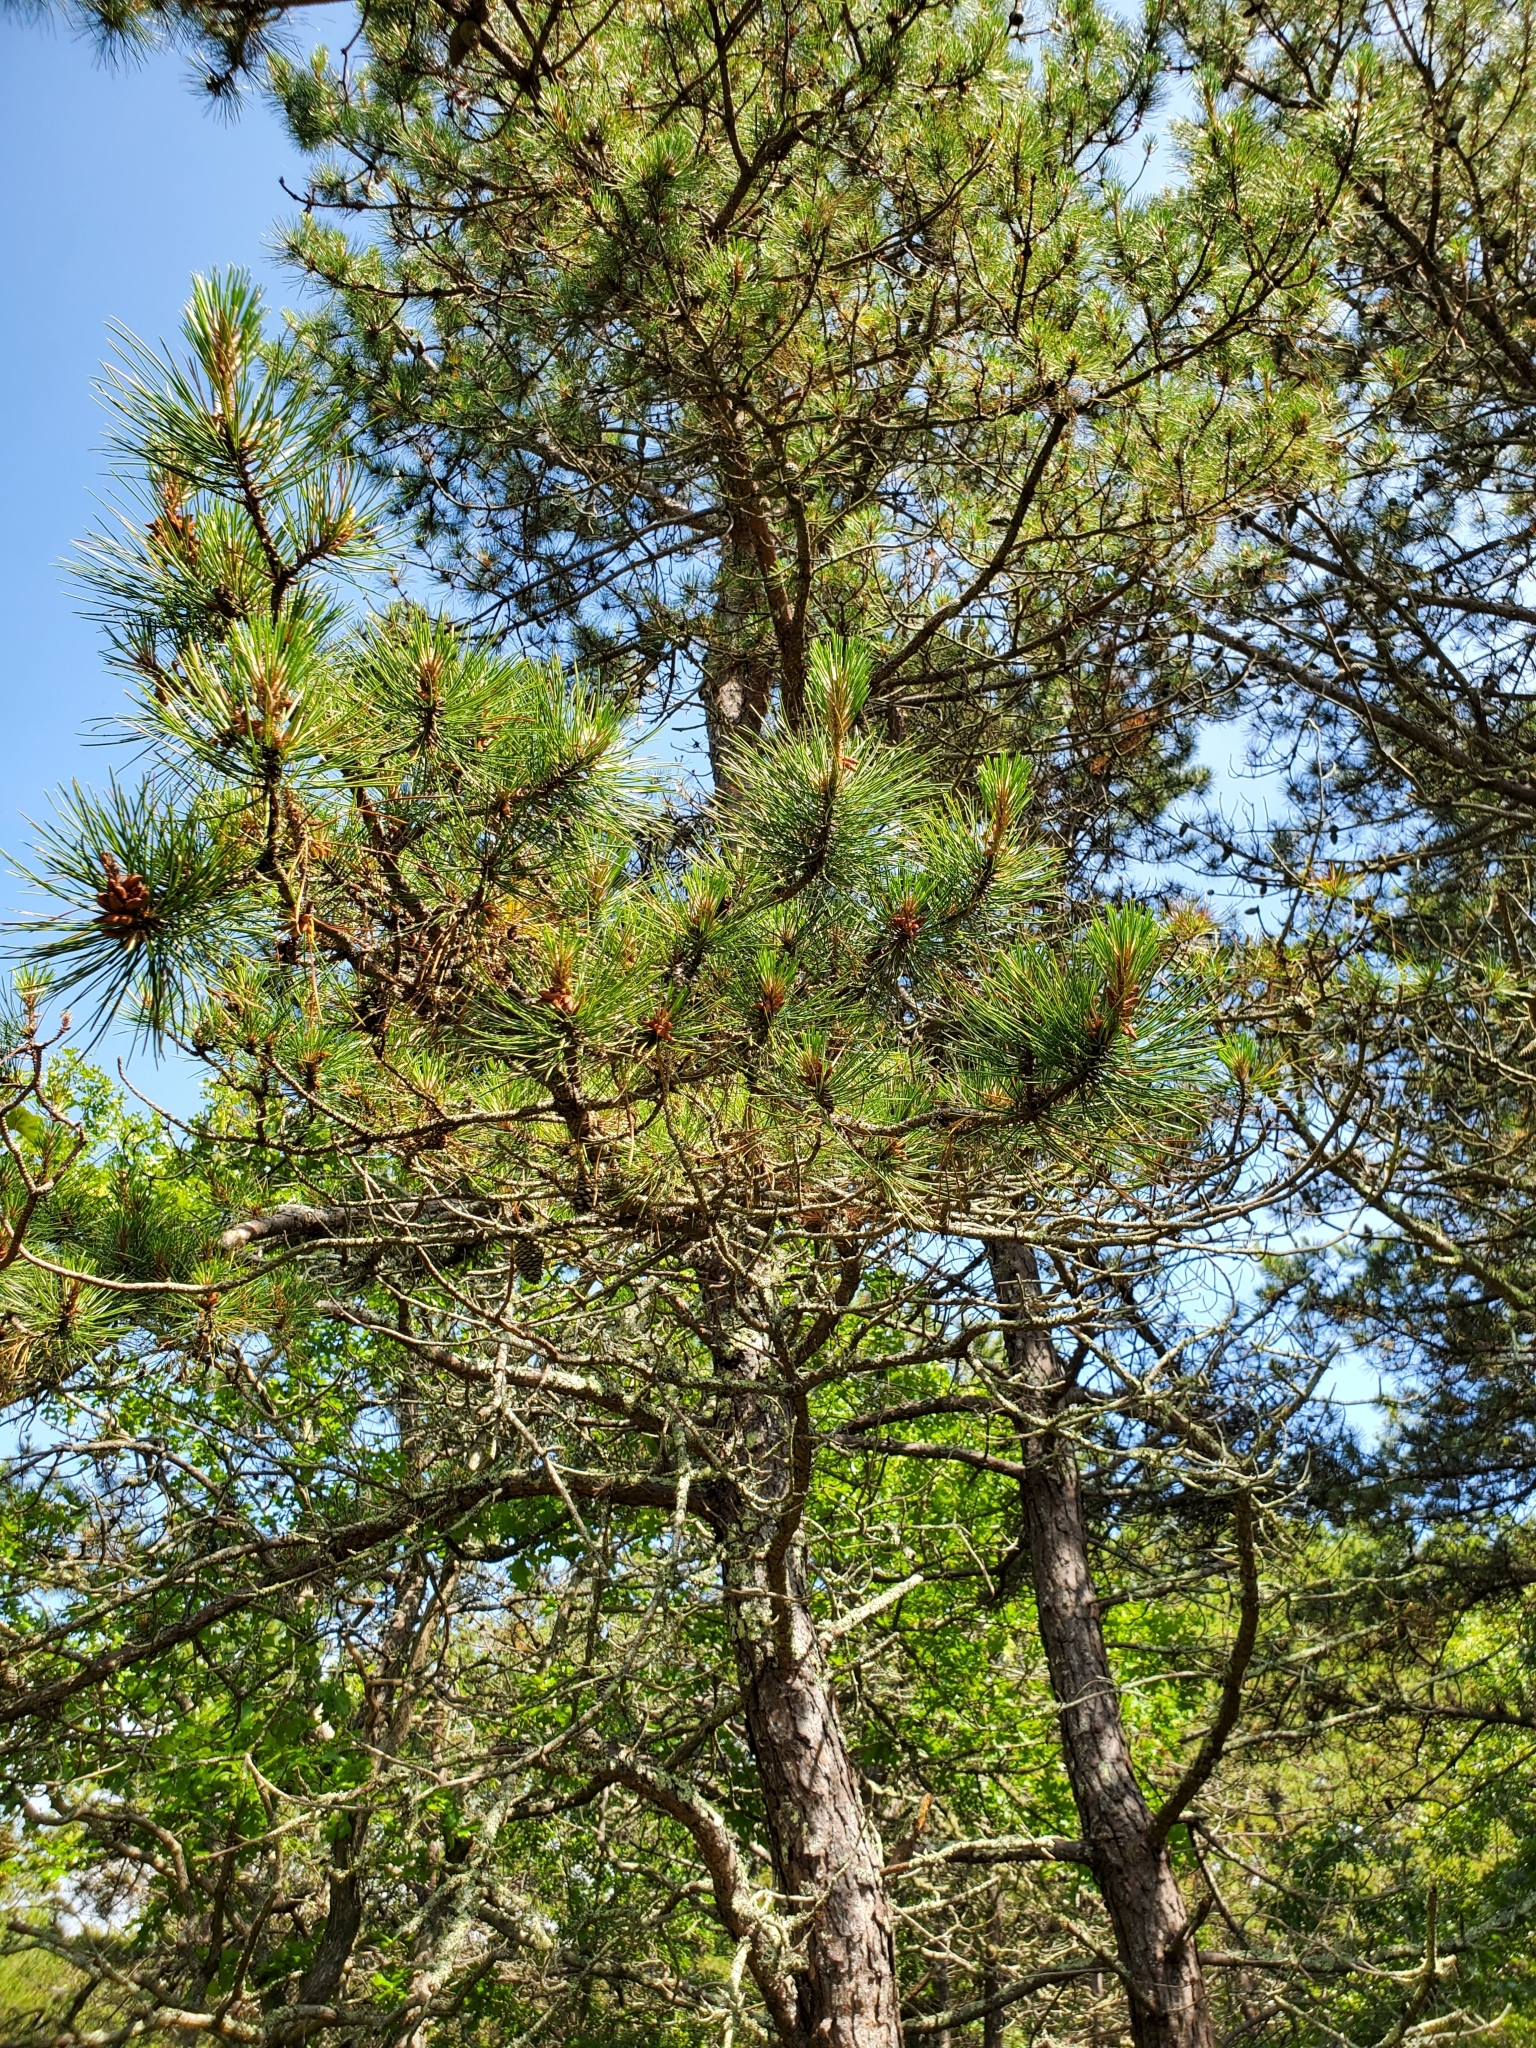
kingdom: Plantae
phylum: Tracheophyta
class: Pinopsida
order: Pinales
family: Pinaceae
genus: Pinus
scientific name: Pinus rigida
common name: Pitch pine
